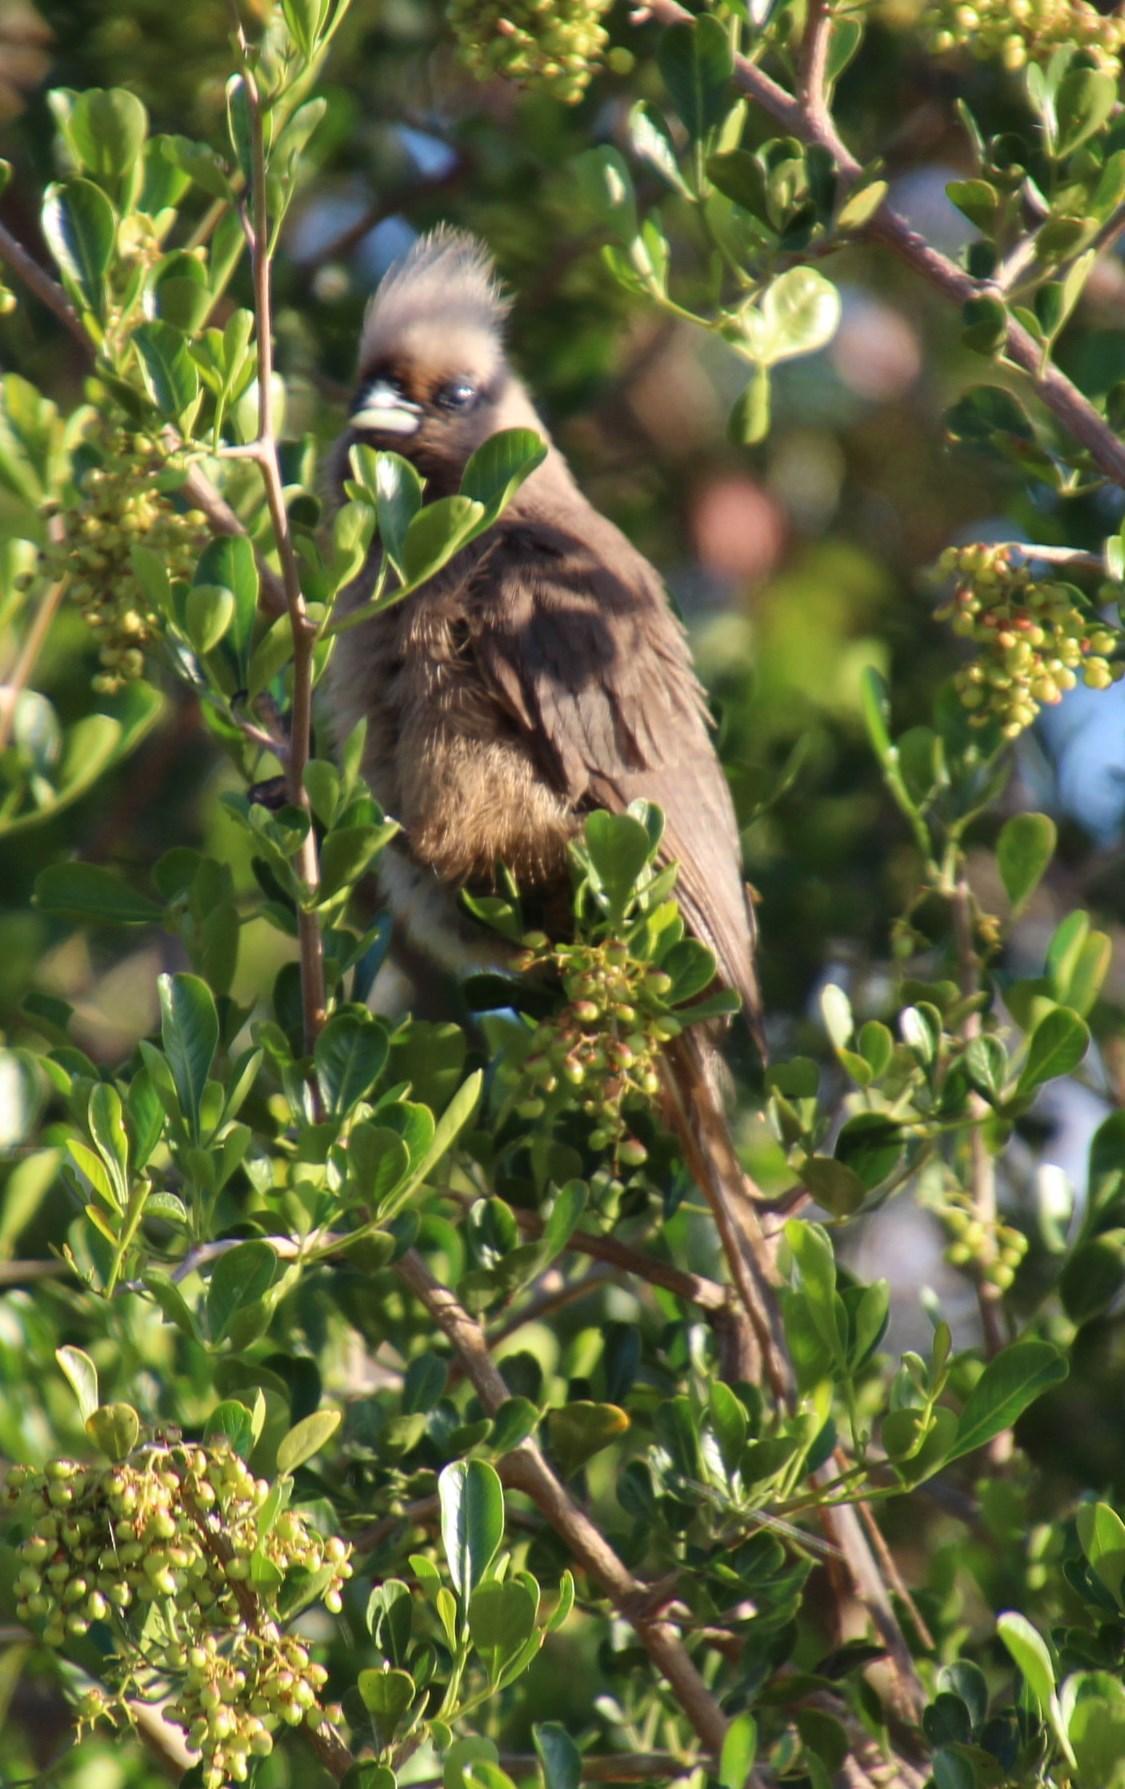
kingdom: Animalia
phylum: Chordata
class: Aves
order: Coliiformes
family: Coliidae
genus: Colius
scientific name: Colius striatus
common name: Speckled mousebird
